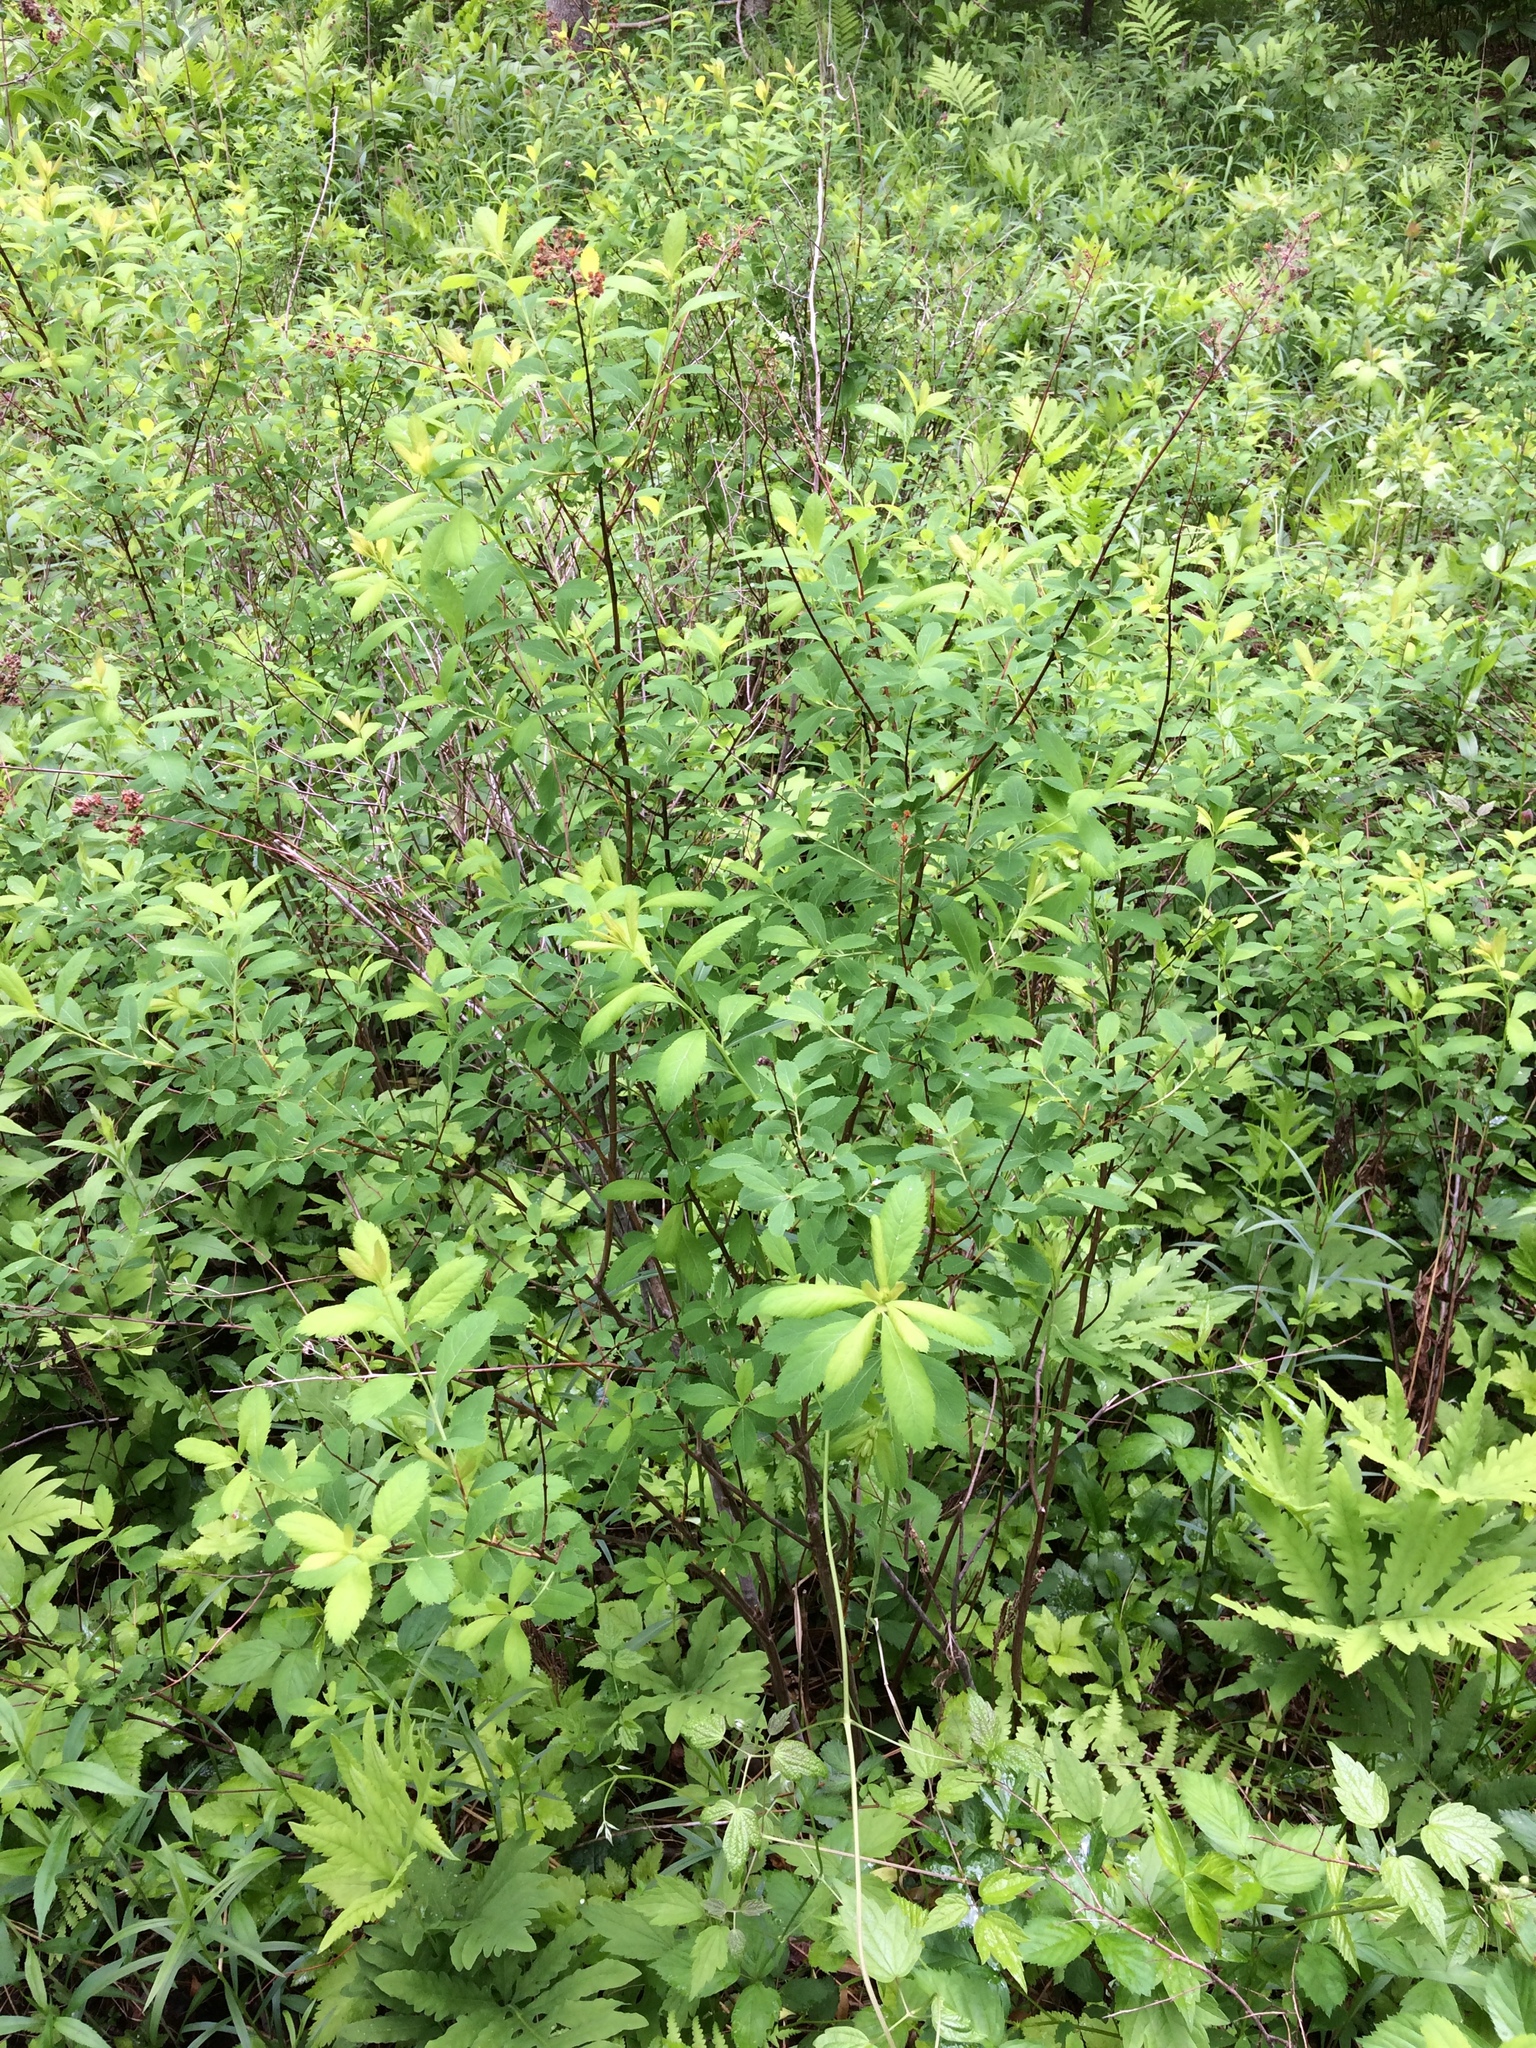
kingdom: Plantae
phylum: Tracheophyta
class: Magnoliopsida
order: Rosales
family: Rosaceae
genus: Spiraea
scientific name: Spiraea alba
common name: Pale bridewort
